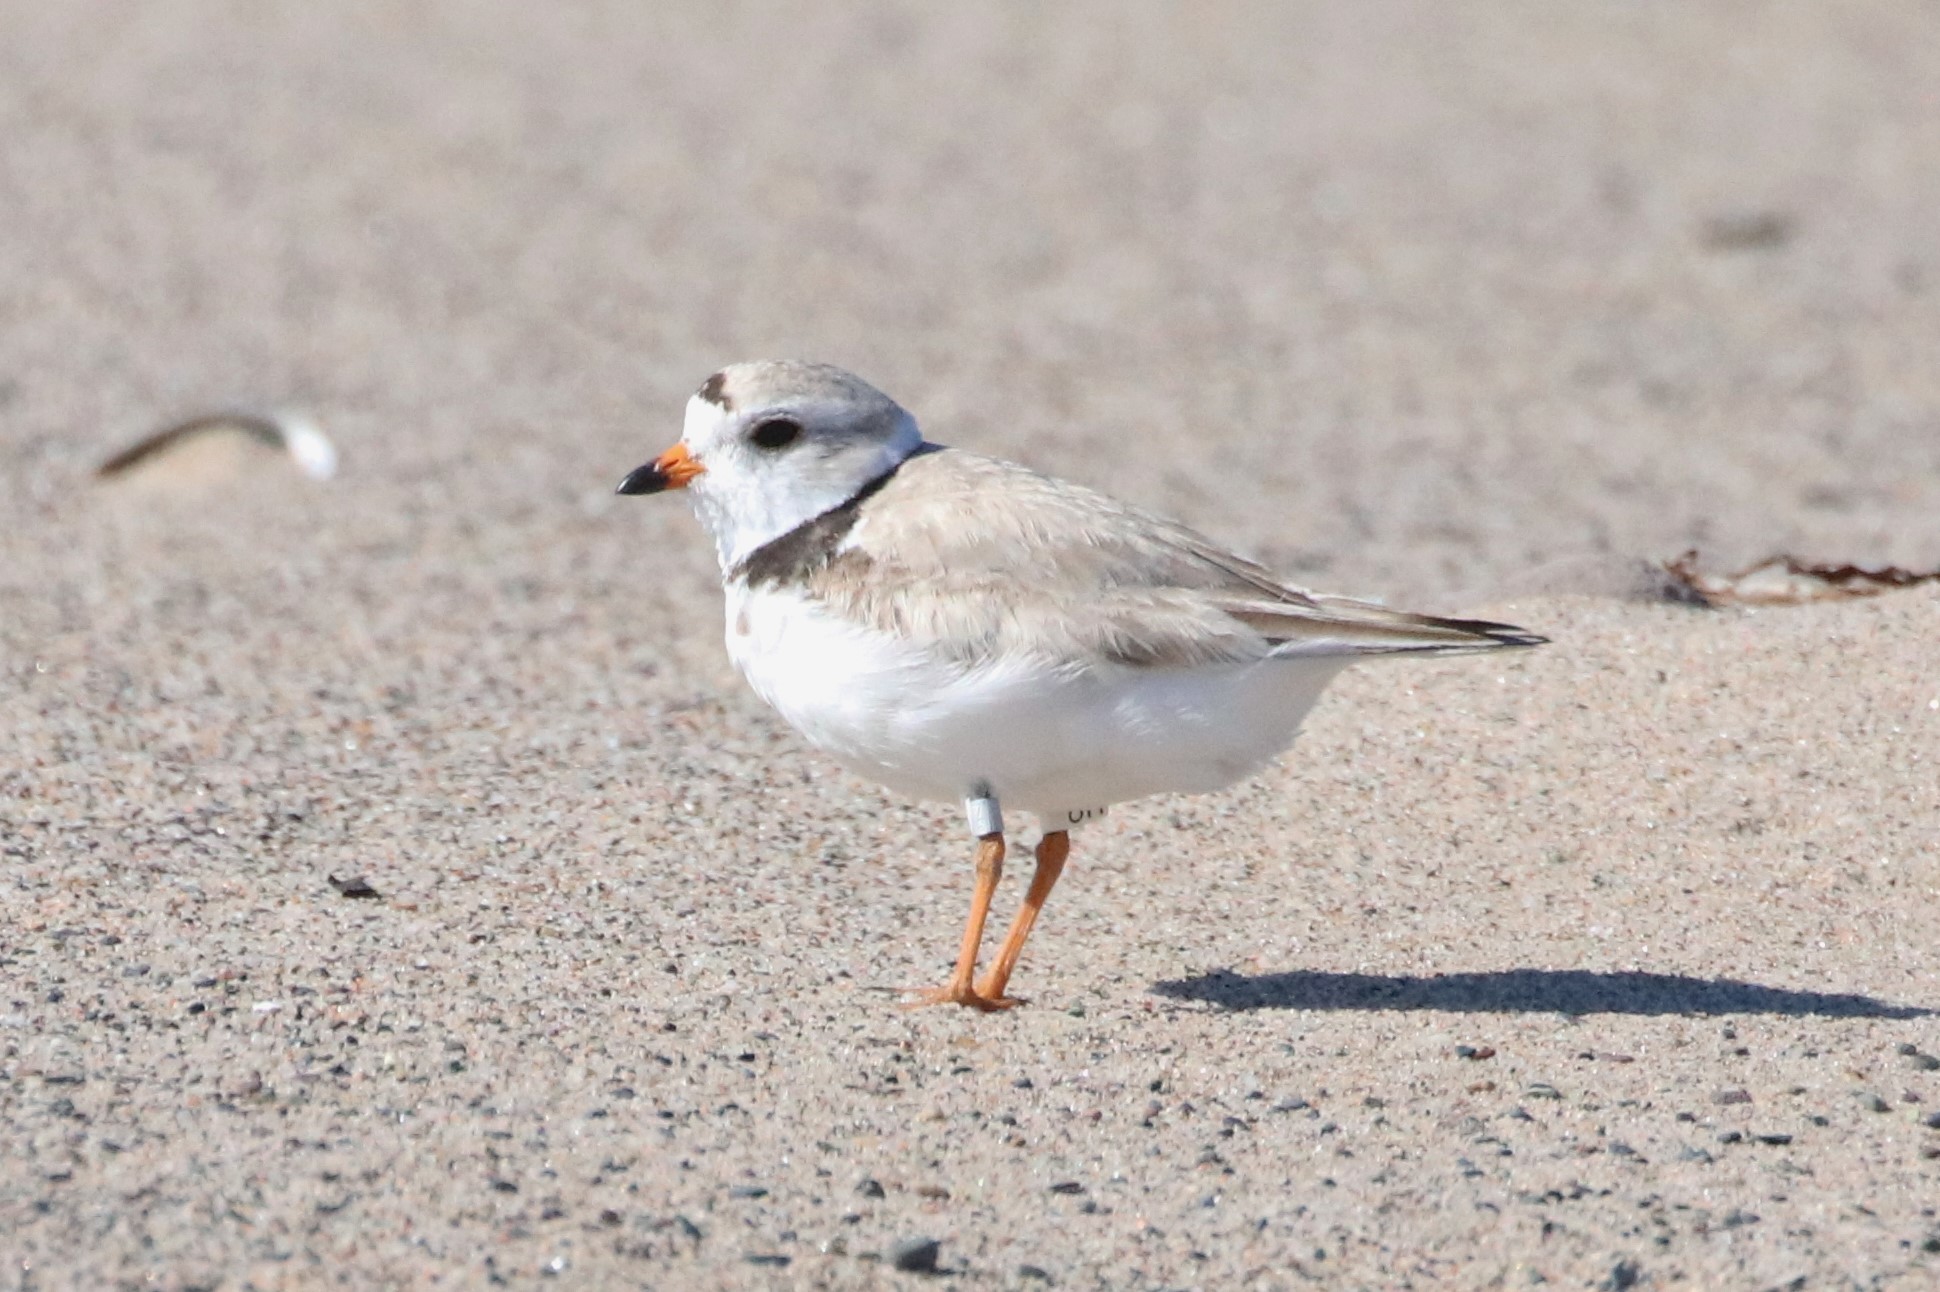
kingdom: Animalia
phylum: Chordata
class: Aves
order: Charadriiformes
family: Charadriidae
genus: Charadrius
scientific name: Charadrius melodus
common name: Piping plover
